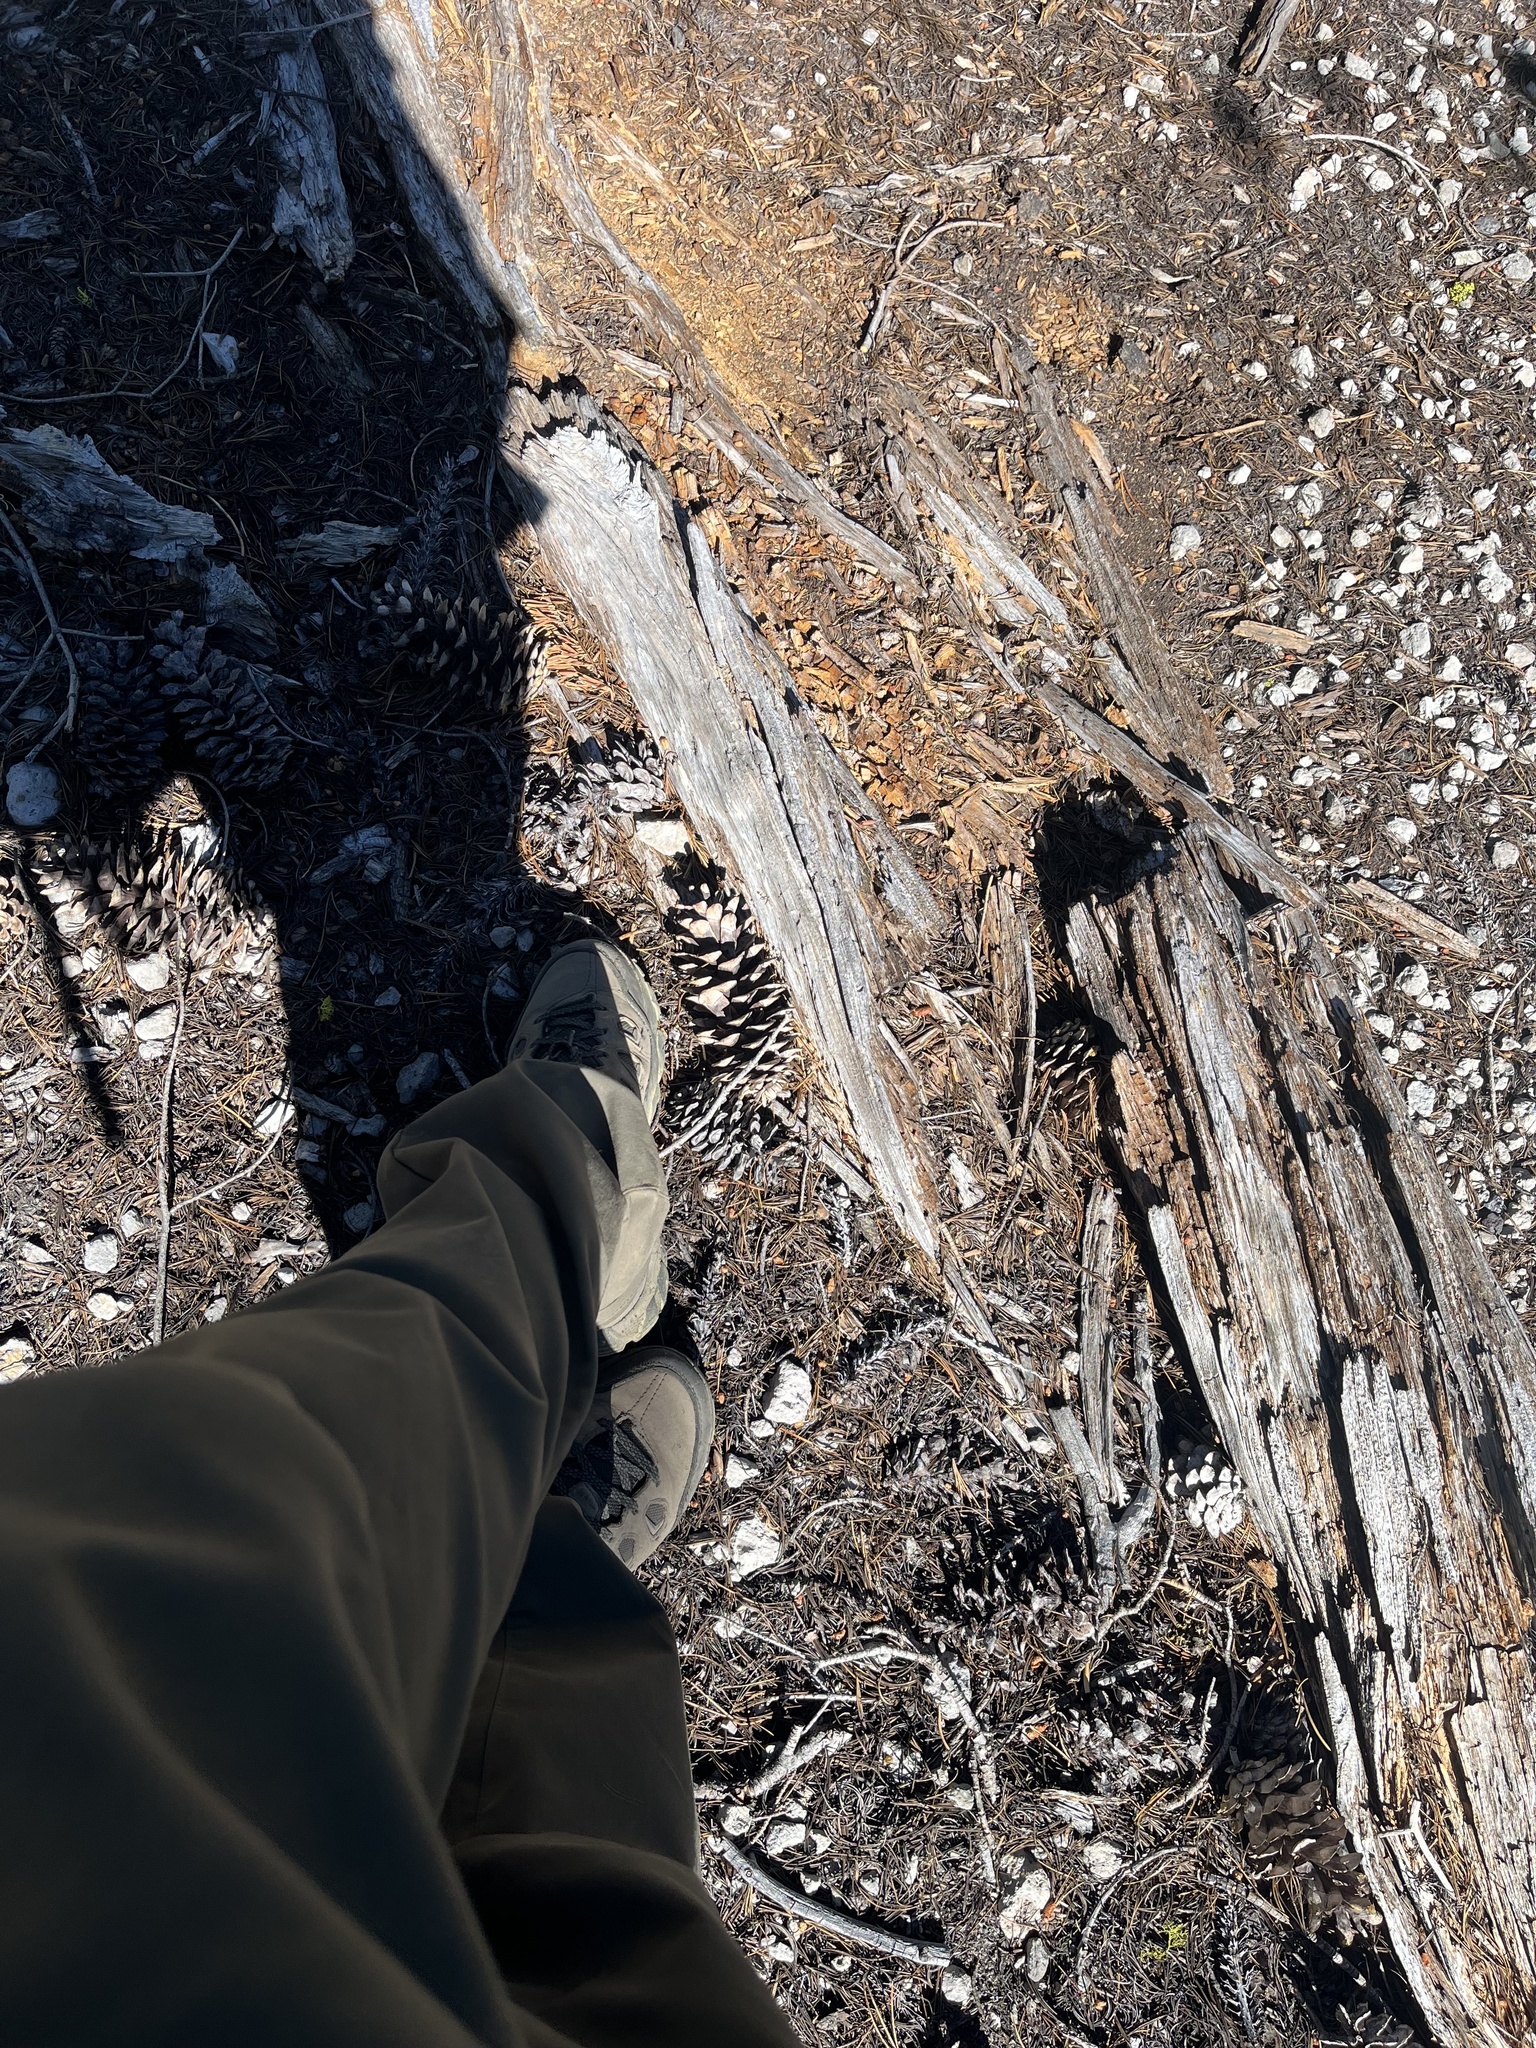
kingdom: Plantae
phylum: Tracheophyta
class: Pinopsida
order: Pinales
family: Pinaceae
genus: Pinus
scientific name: Pinus monticola
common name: Western white pine
